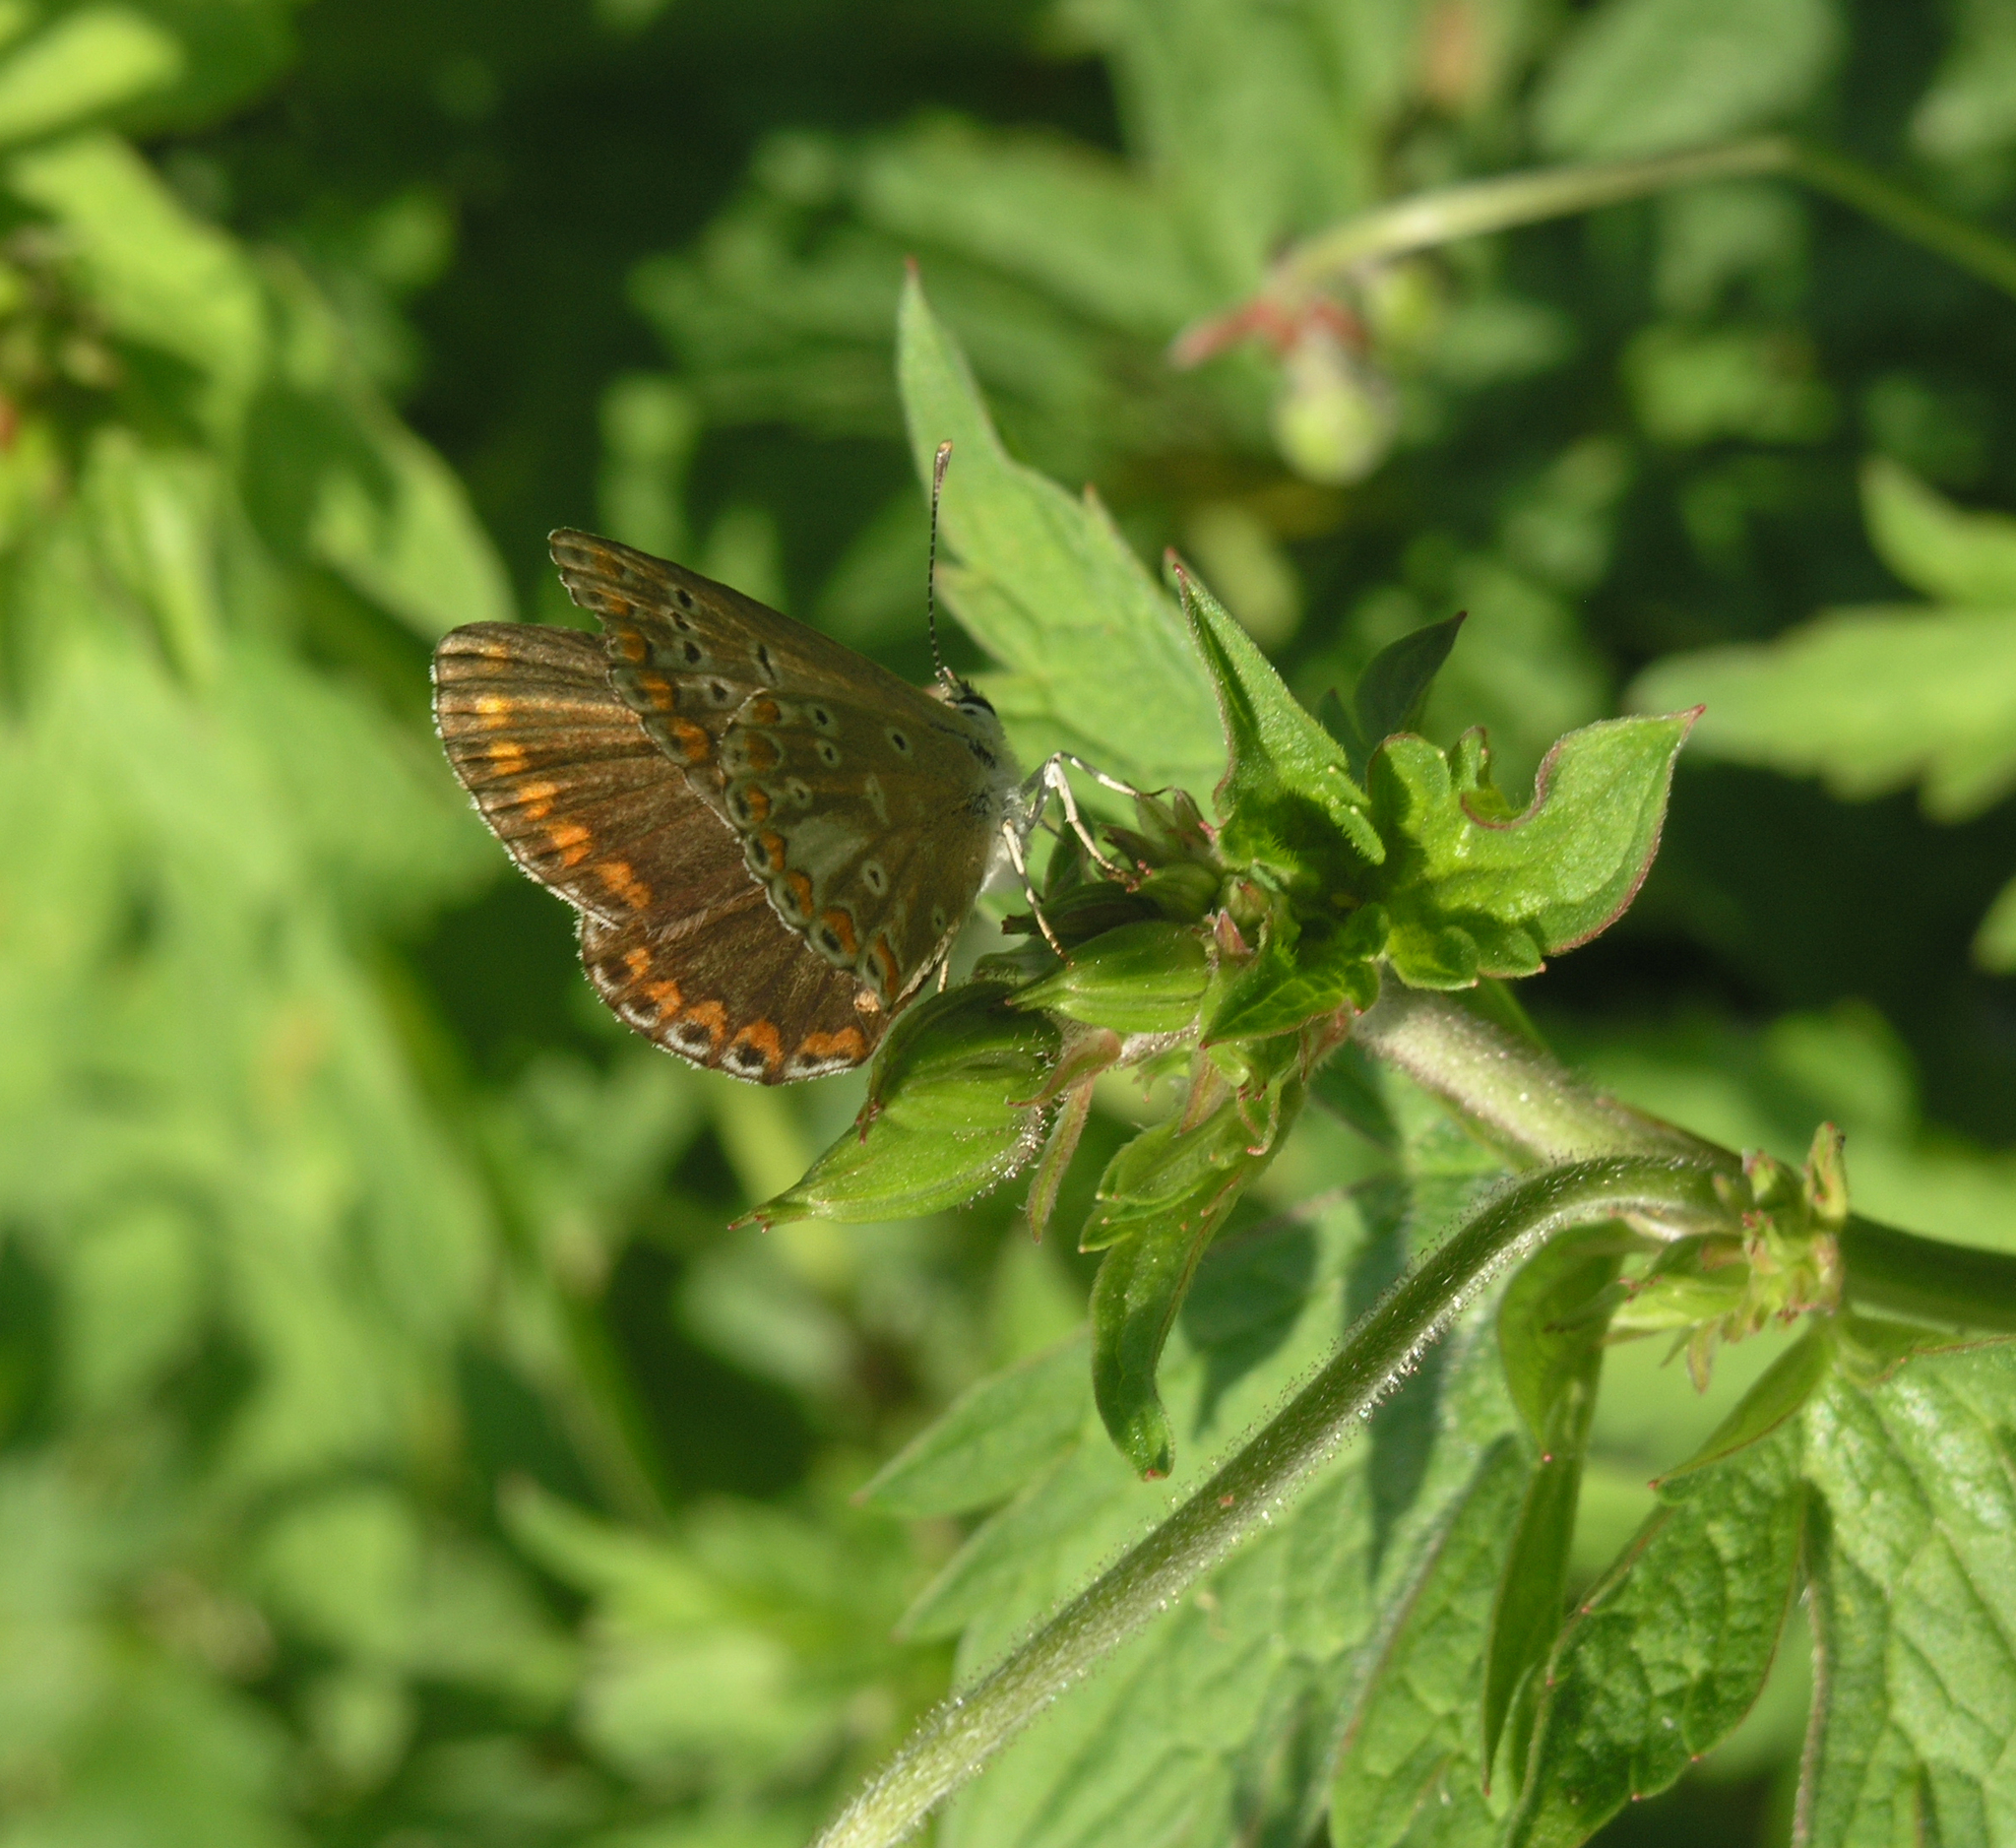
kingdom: Animalia
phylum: Arthropoda
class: Insecta
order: Lepidoptera
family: Lycaenidae
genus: Aricia
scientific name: Aricia agestis
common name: Brown argus
